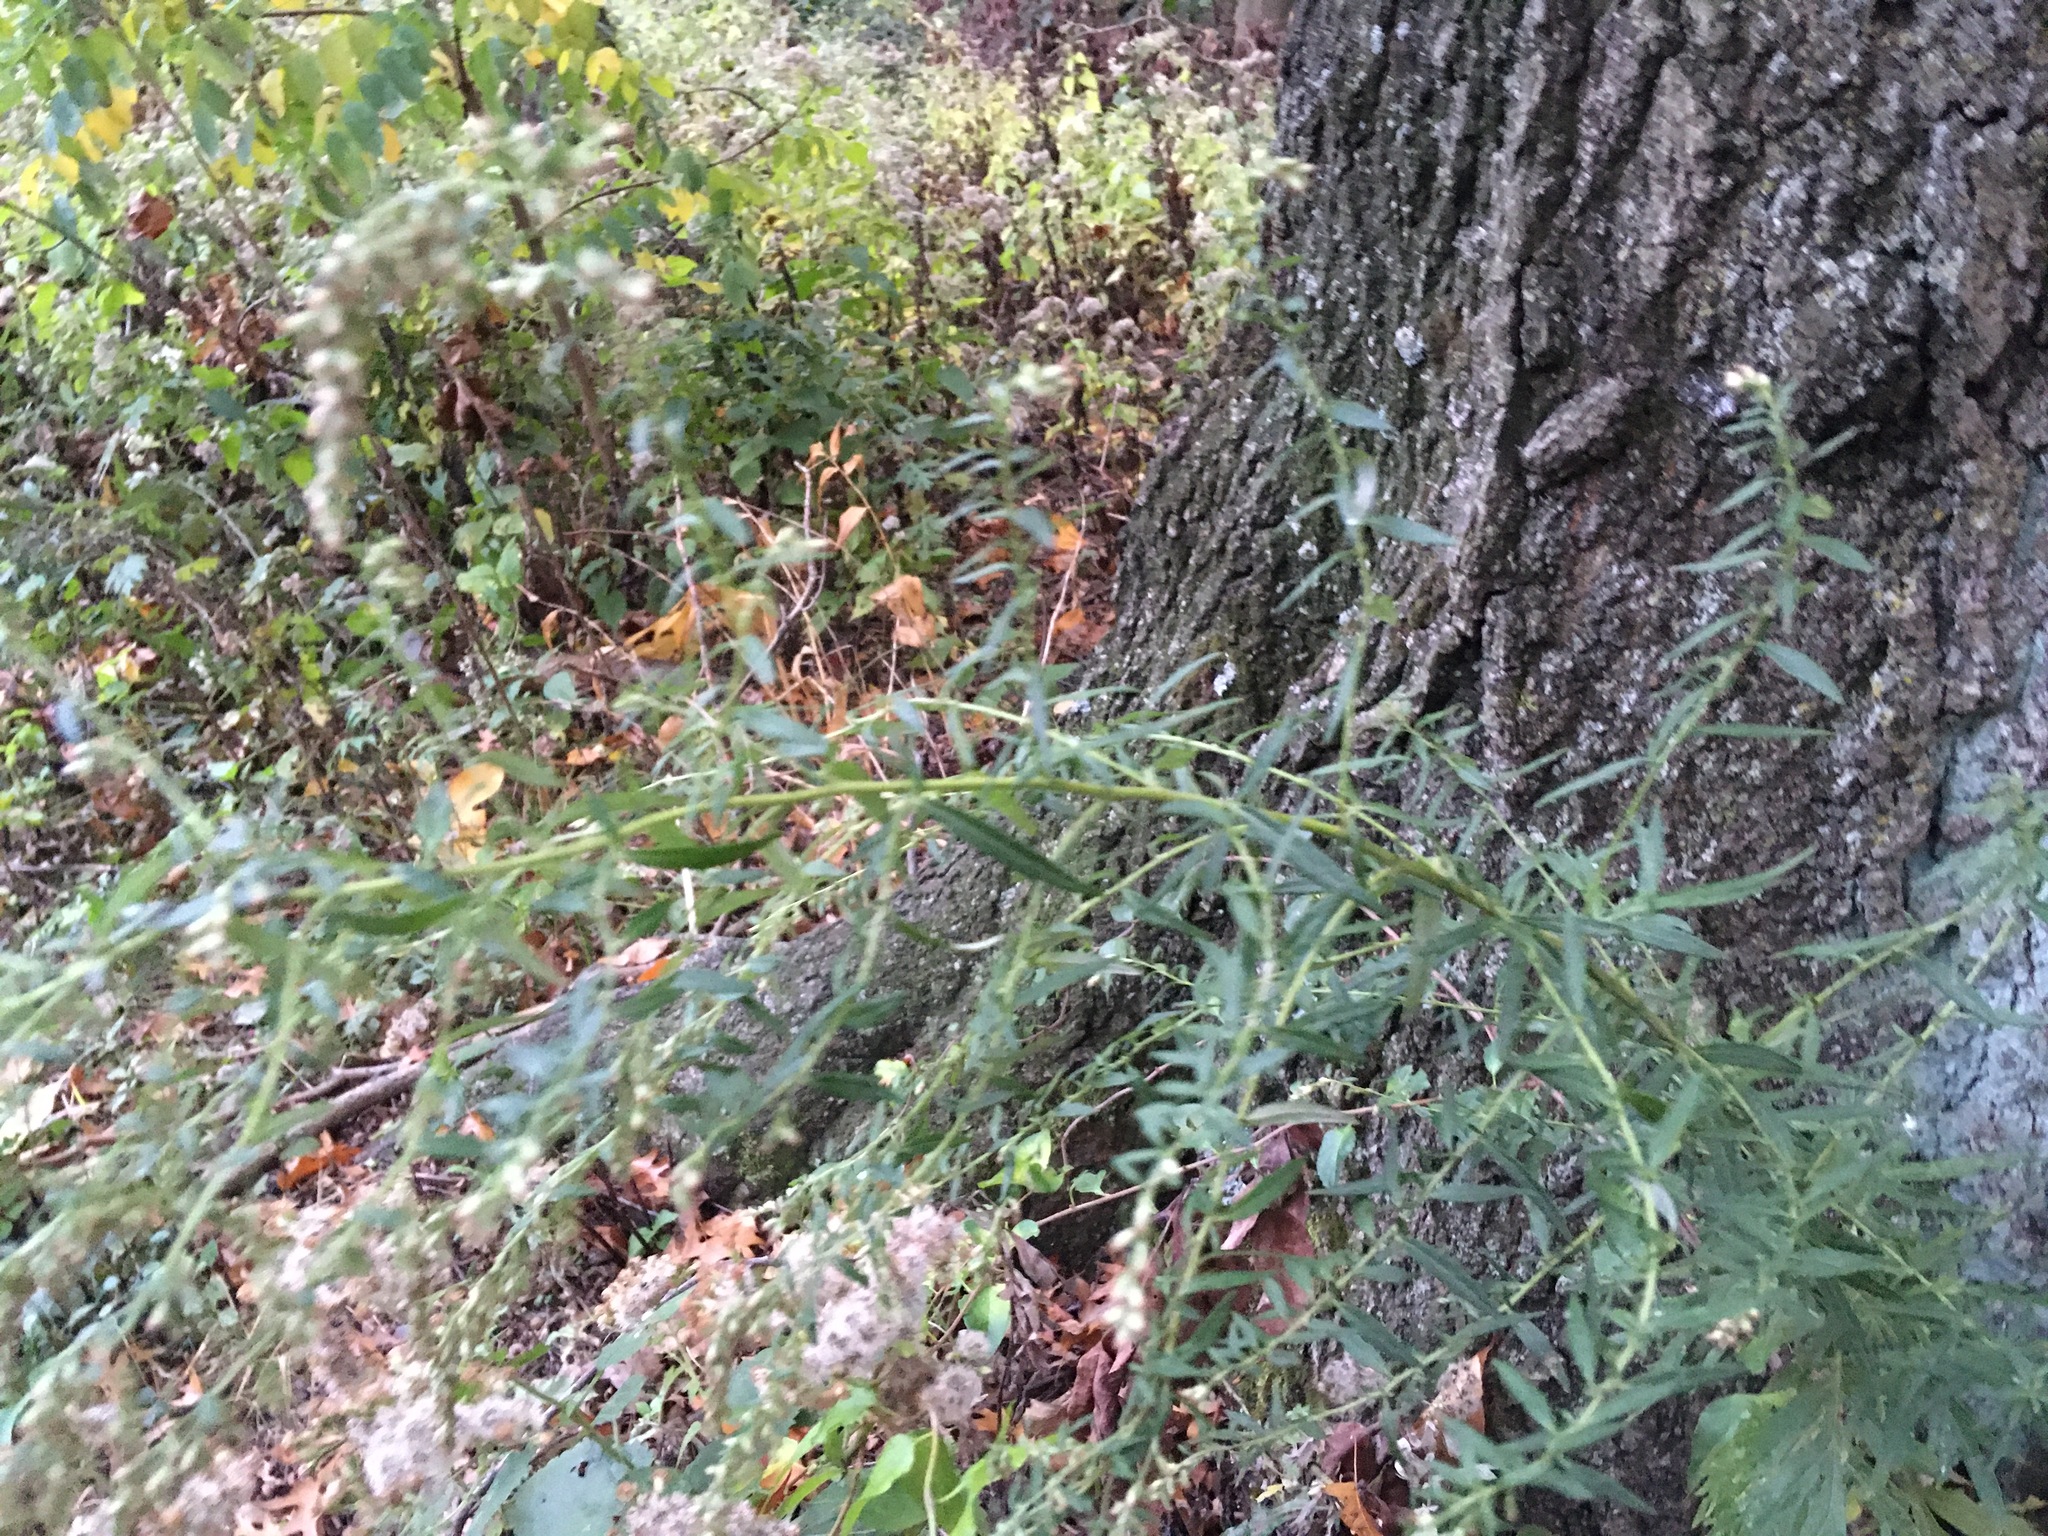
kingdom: Plantae
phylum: Tracheophyta
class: Magnoliopsida
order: Asterales
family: Asteraceae
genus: Artemisia
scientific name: Artemisia vulgaris
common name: Mugwort
